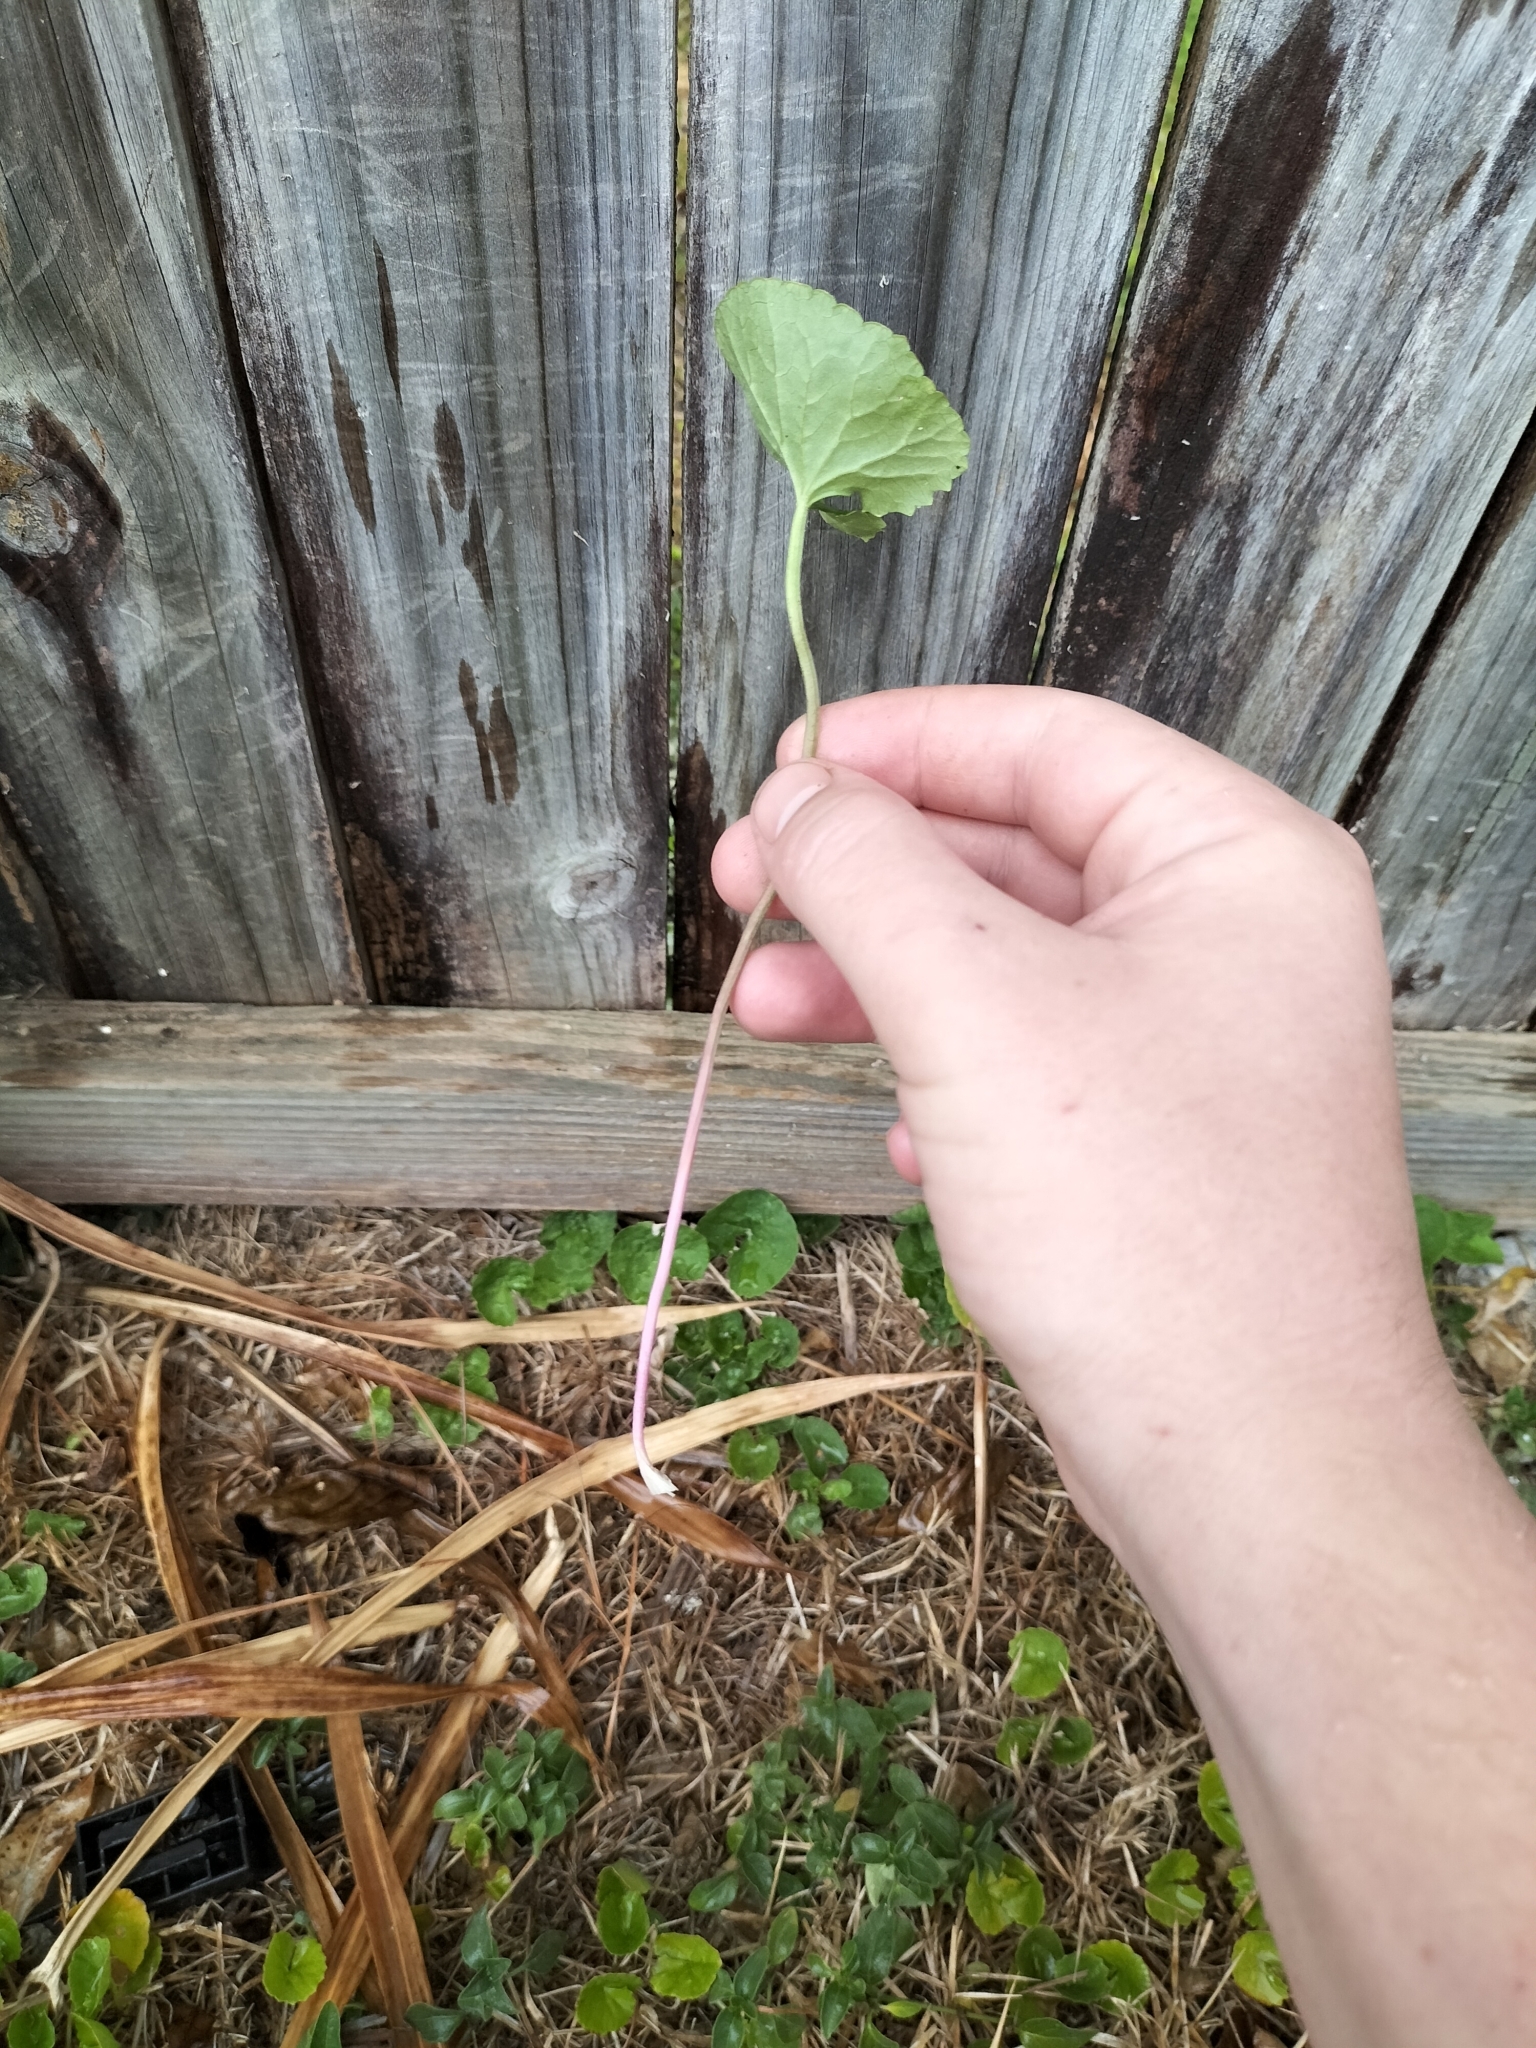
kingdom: Plantae
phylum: Tracheophyta
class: Magnoliopsida
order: Apiales
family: Apiaceae
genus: Centella
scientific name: Centella asiatica
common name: Spadeleaf
